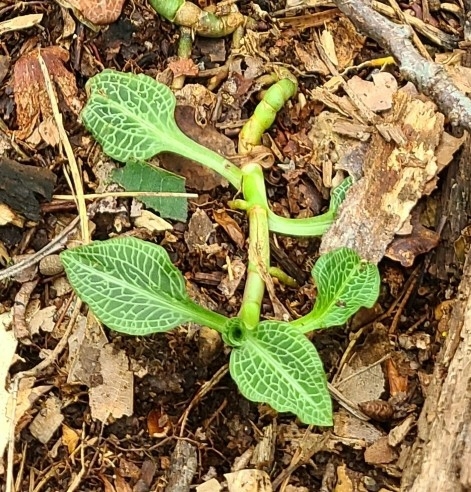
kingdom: Plantae
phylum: Tracheophyta
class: Liliopsida
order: Asparagales
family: Orchidaceae
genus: Goodyera
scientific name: Goodyera pubescens
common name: Downy rattlesnake-plantain
